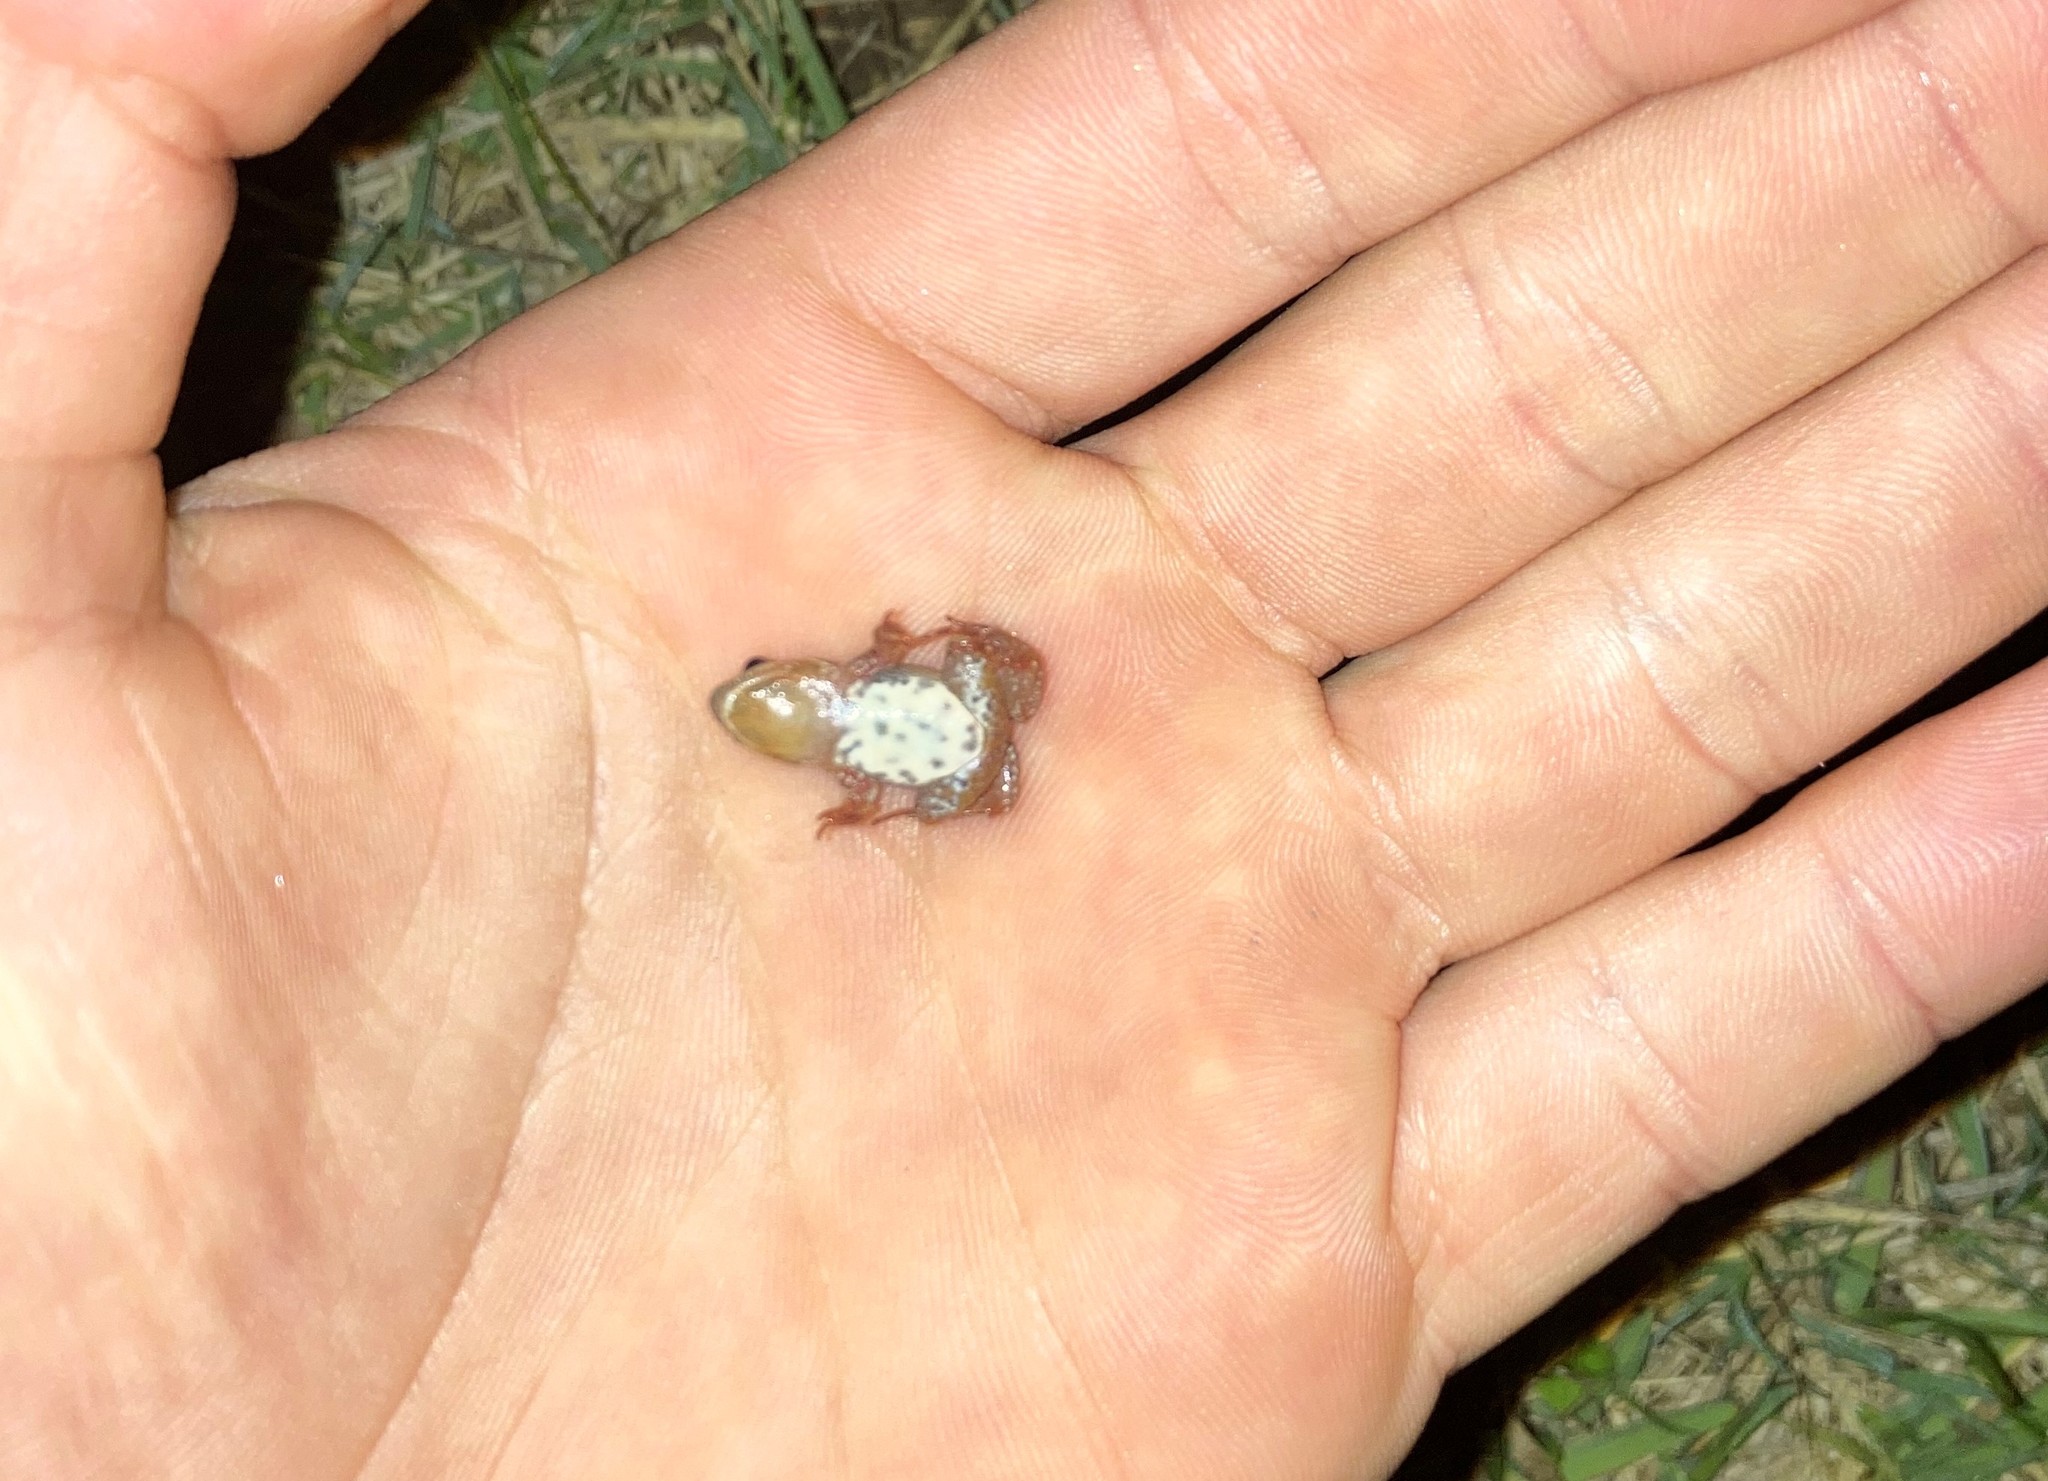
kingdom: Animalia
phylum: Chordata
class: Amphibia
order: Anura
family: Pyxicephalidae
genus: Cacosternum
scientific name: Cacosternum boettgeri
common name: Boettger's frog
